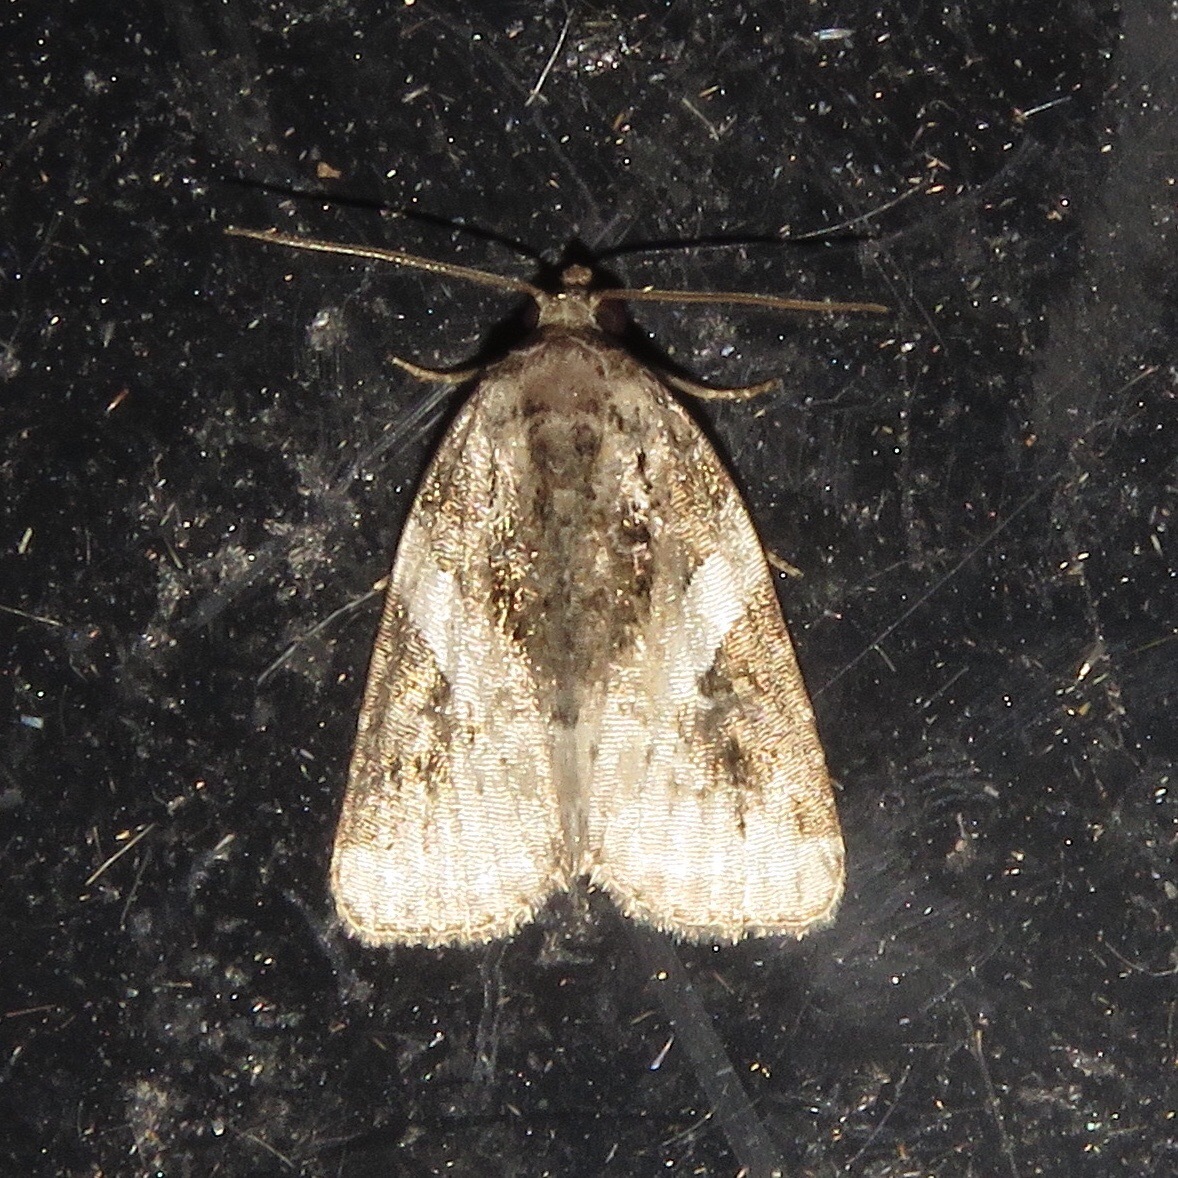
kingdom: Animalia
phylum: Arthropoda
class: Insecta
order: Lepidoptera
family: Noctuidae
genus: Pseudeustrotia
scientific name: Pseudeustrotia carneola
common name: Pink-barred lithacodia moth
